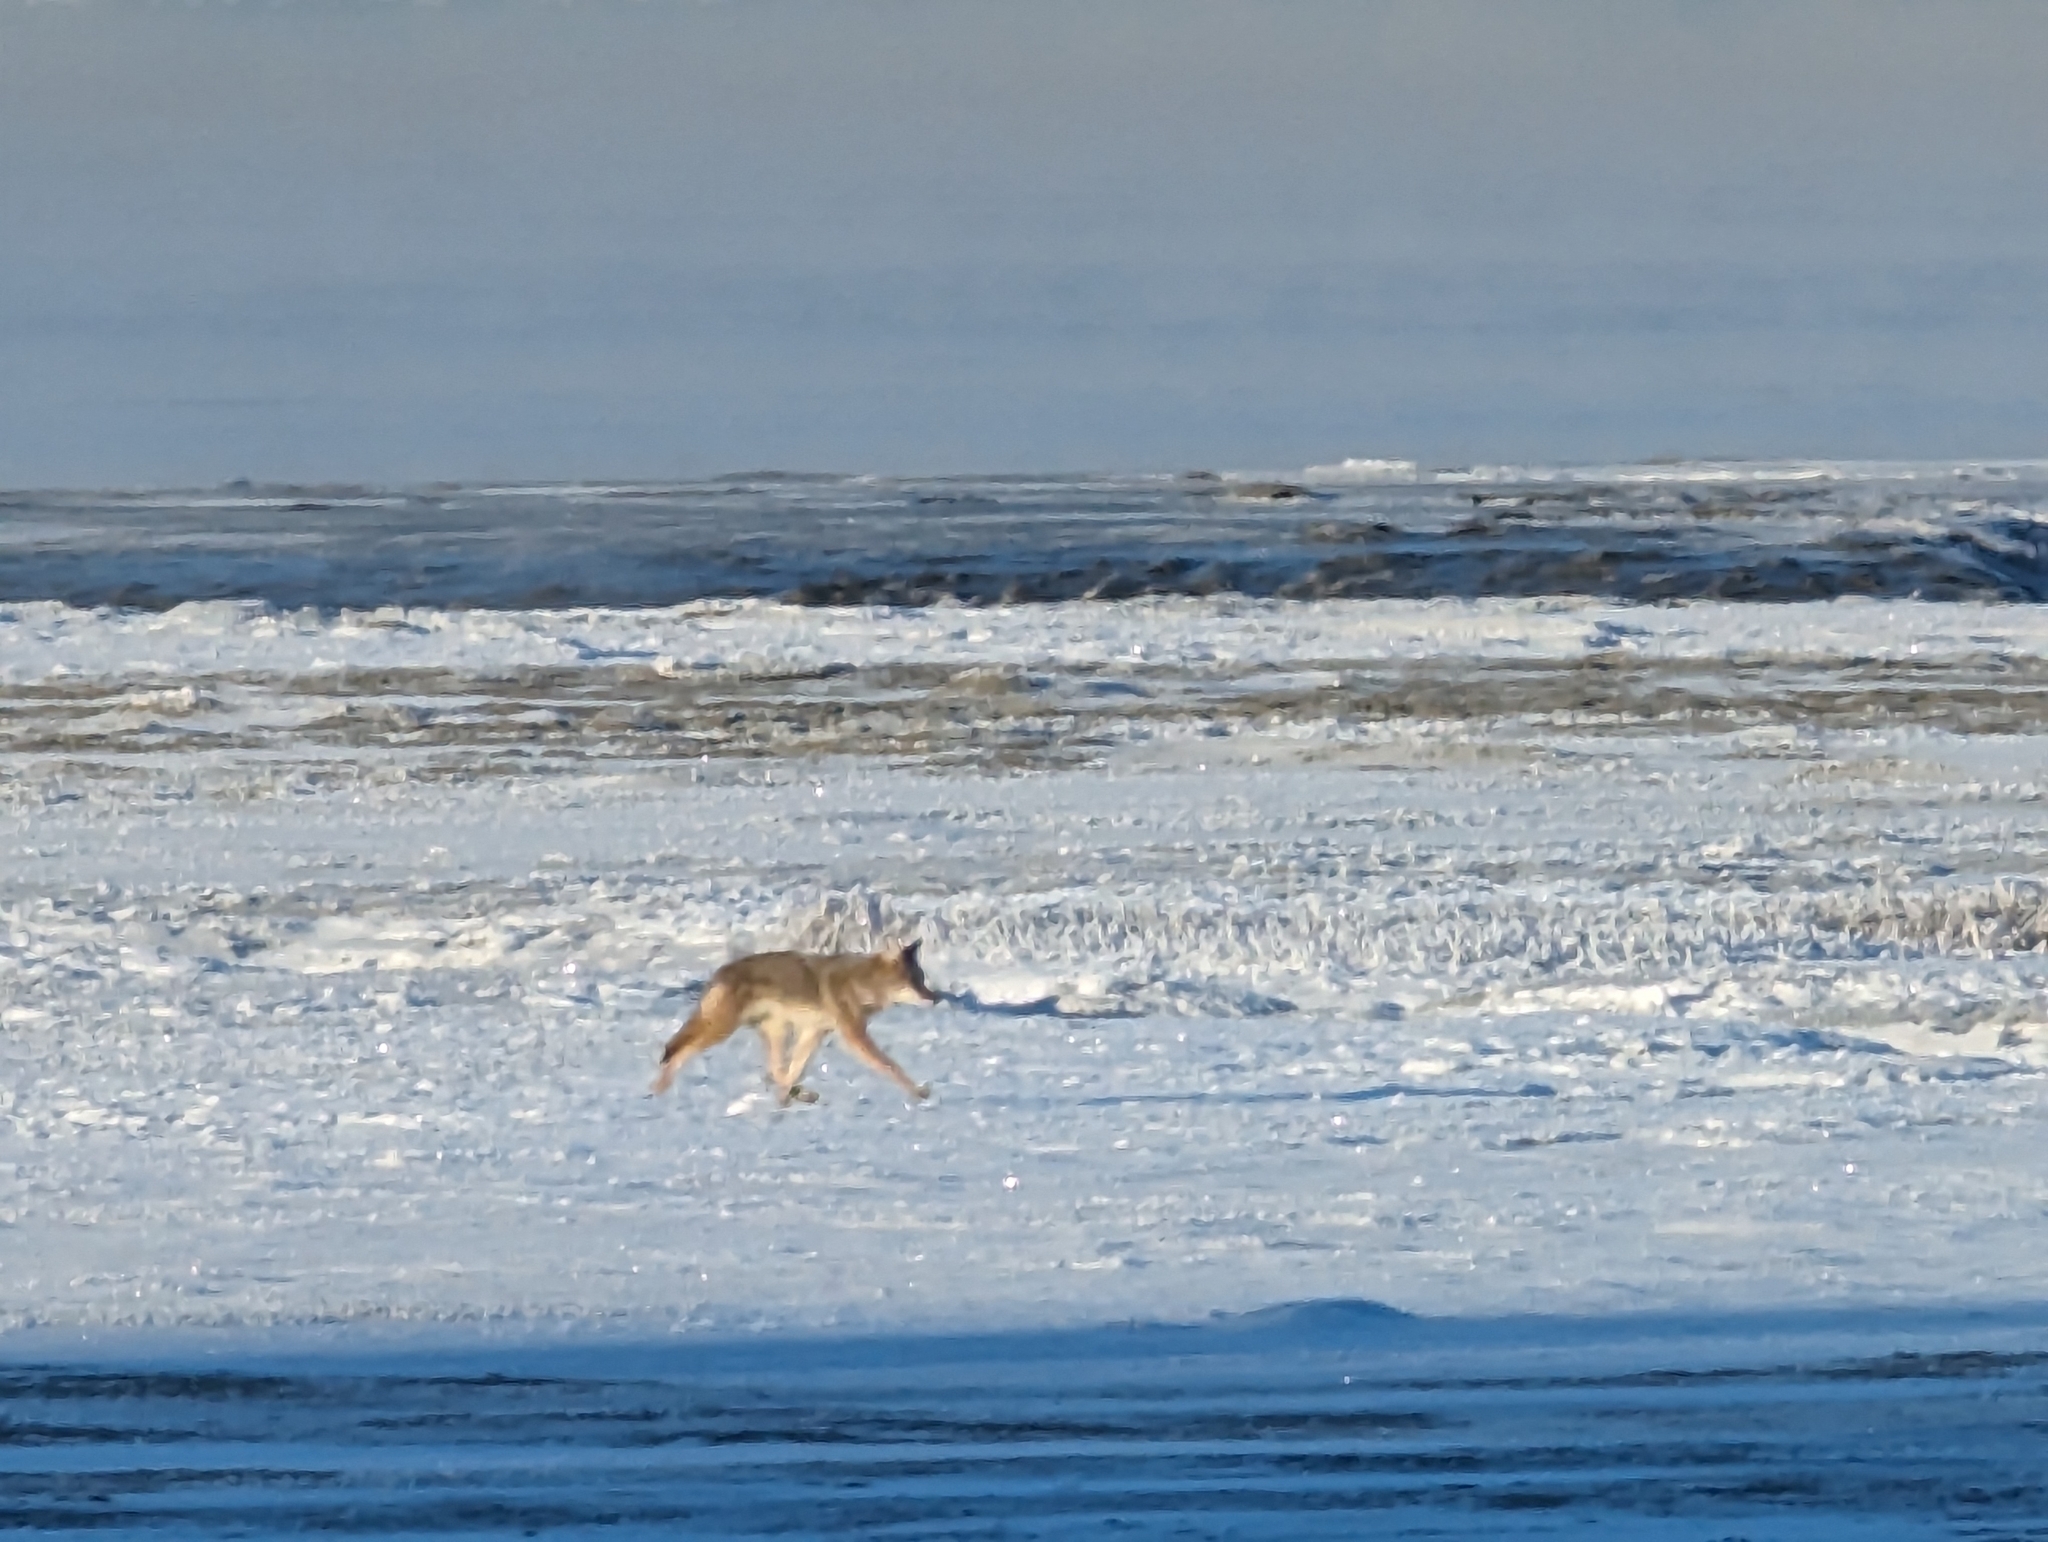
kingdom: Animalia
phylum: Chordata
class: Mammalia
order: Carnivora
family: Canidae
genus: Canis
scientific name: Canis latrans
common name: Coyote
